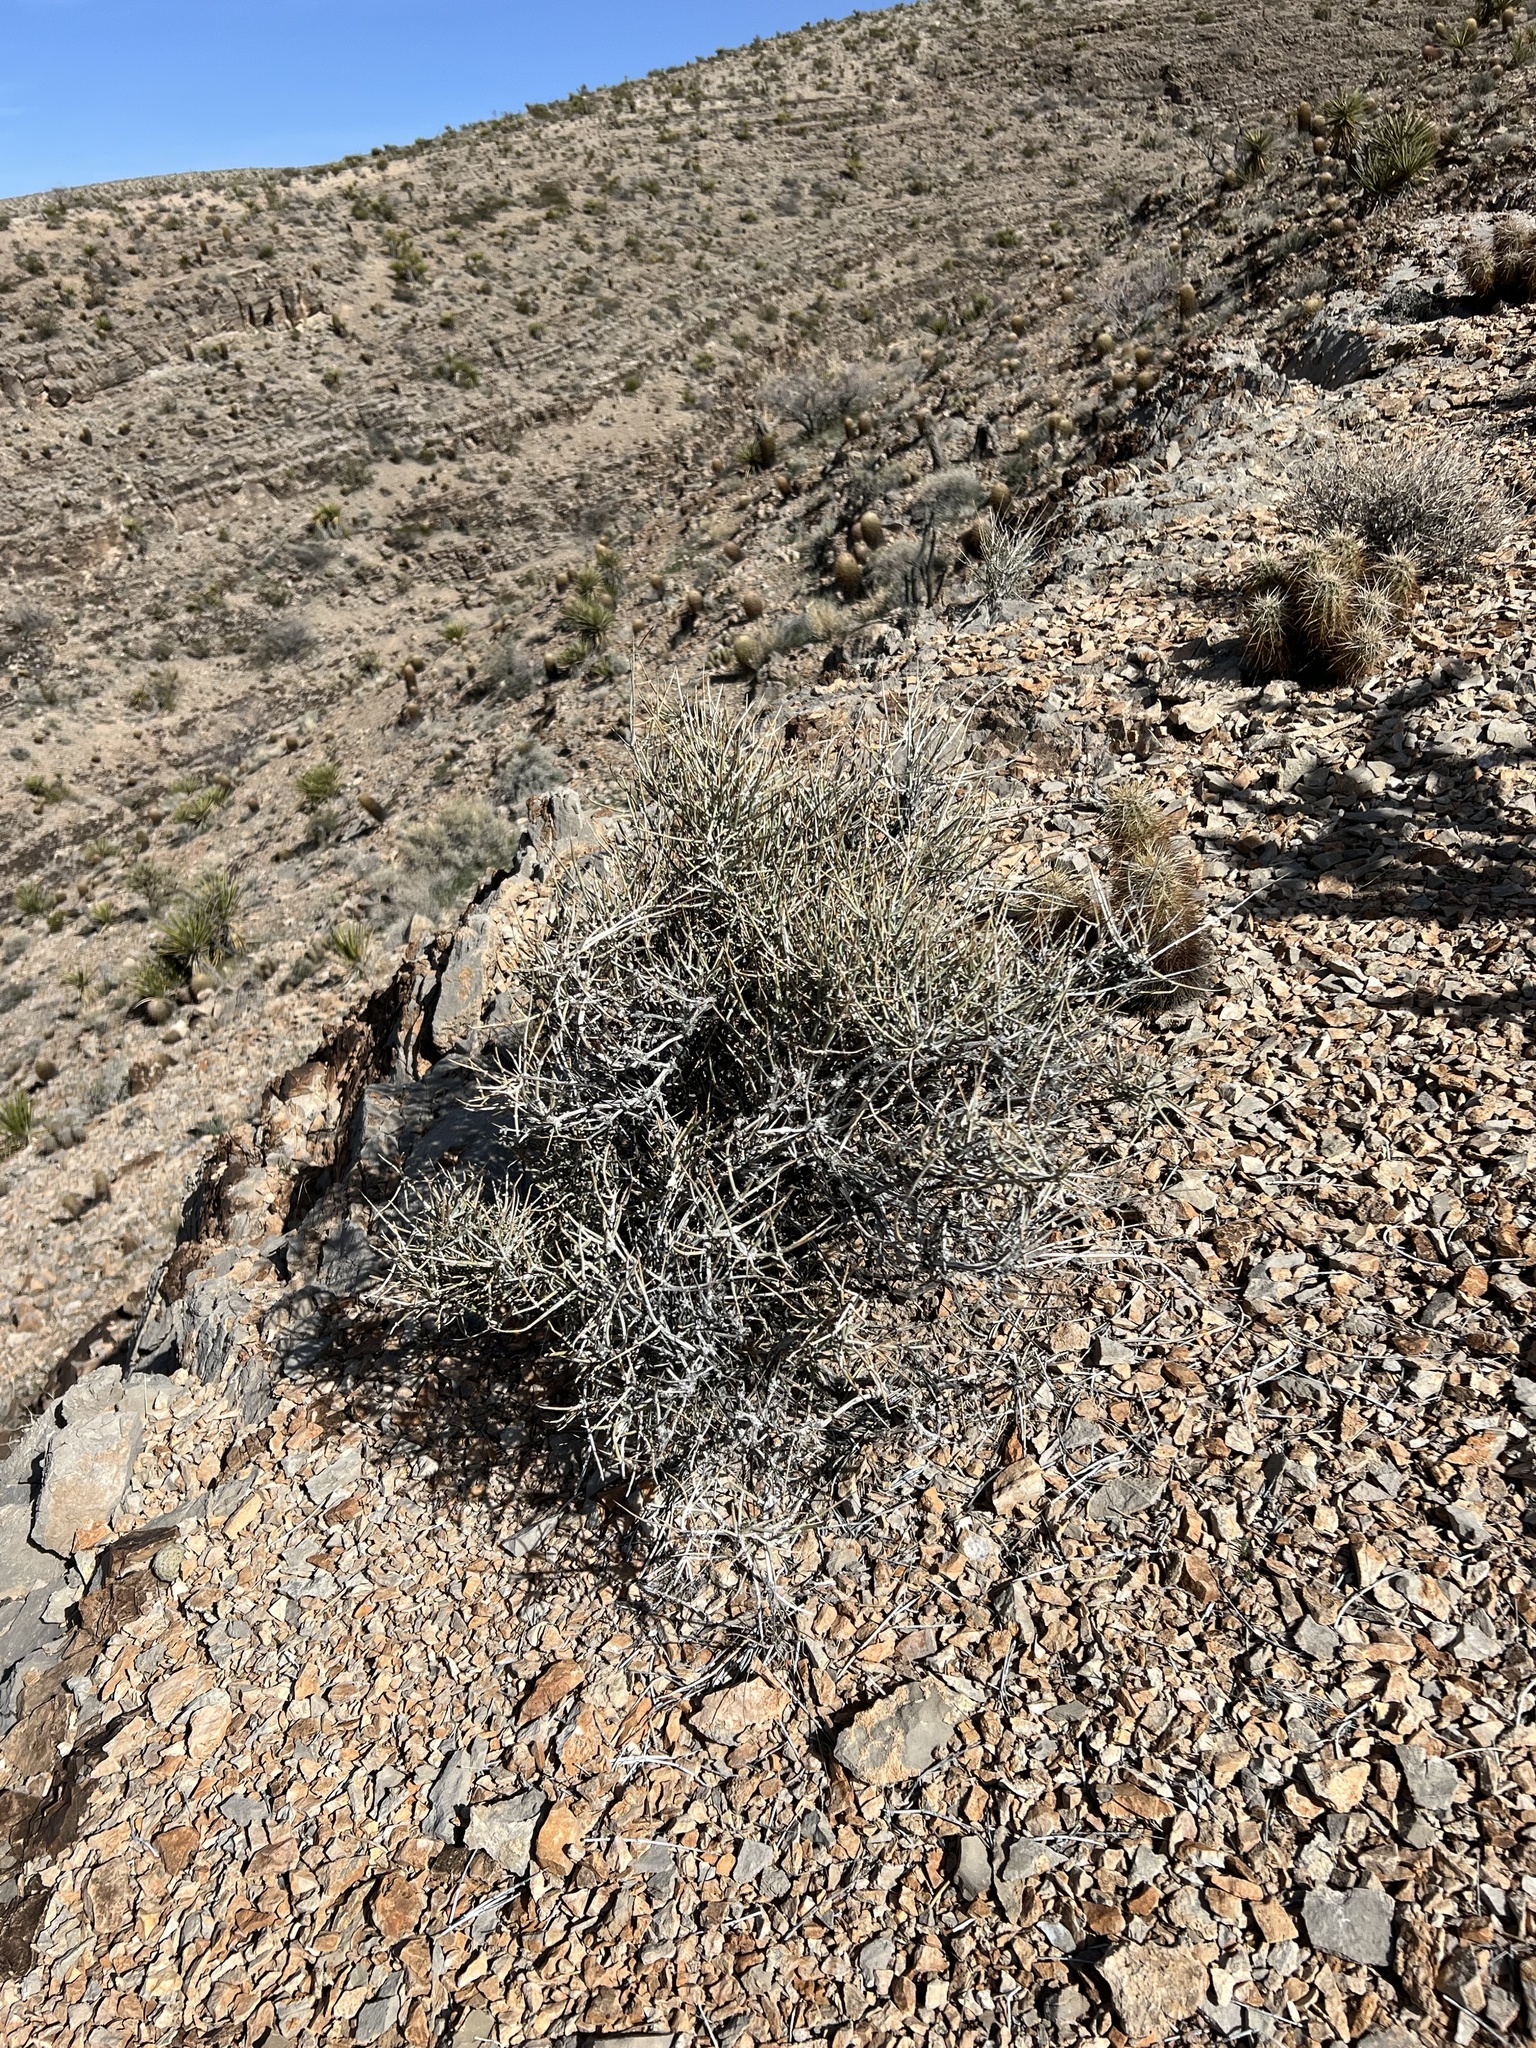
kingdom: Plantae
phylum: Tracheophyta
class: Gnetopsida
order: Ephedrales
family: Ephedraceae
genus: Ephedra
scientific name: Ephedra nevadensis
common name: Gray ephedra
